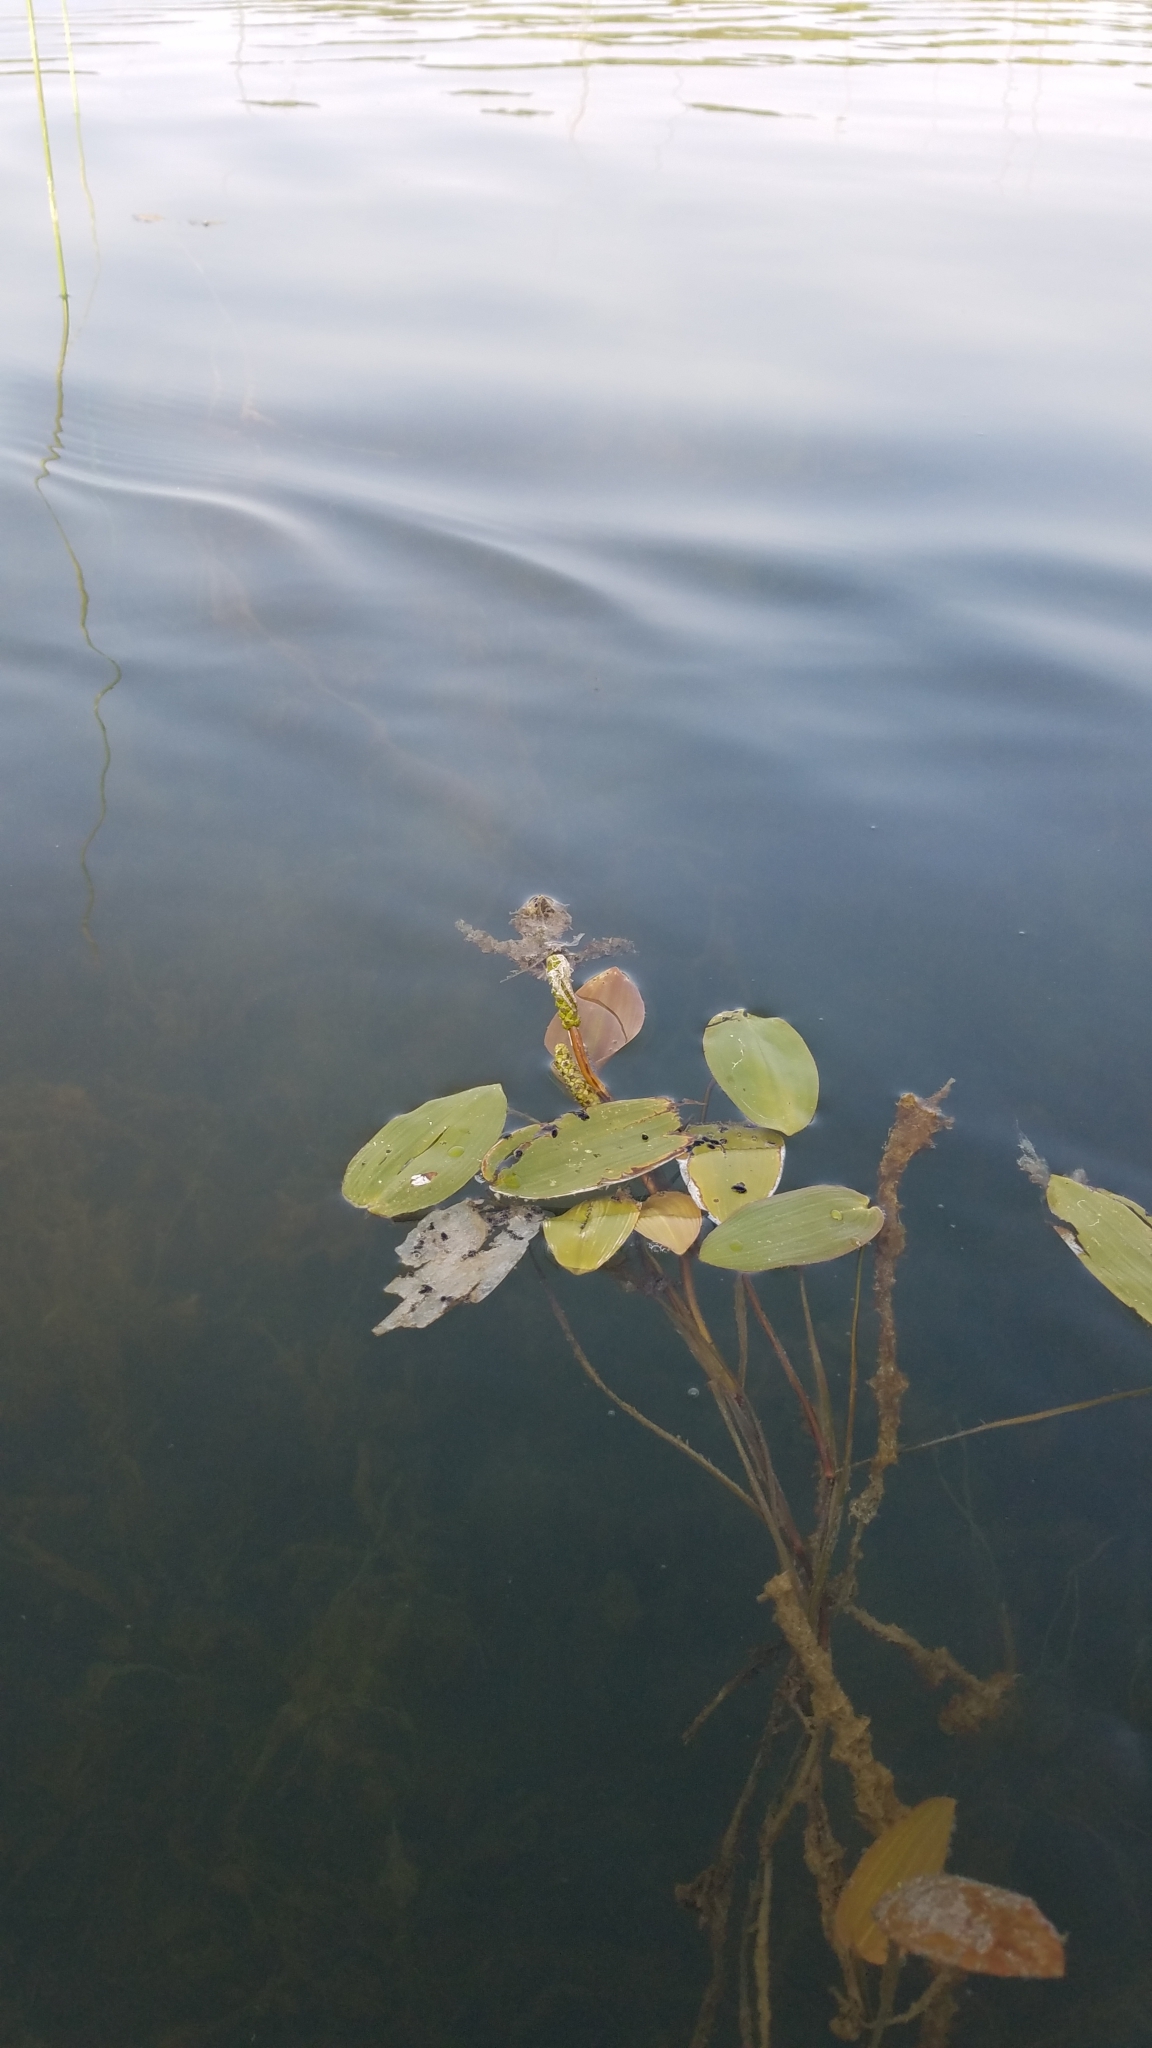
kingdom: Plantae
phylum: Tracheophyta
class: Liliopsida
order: Alismatales
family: Potamogetonaceae
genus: Potamogeton
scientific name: Potamogeton natans
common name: Broad-leaved pondweed
